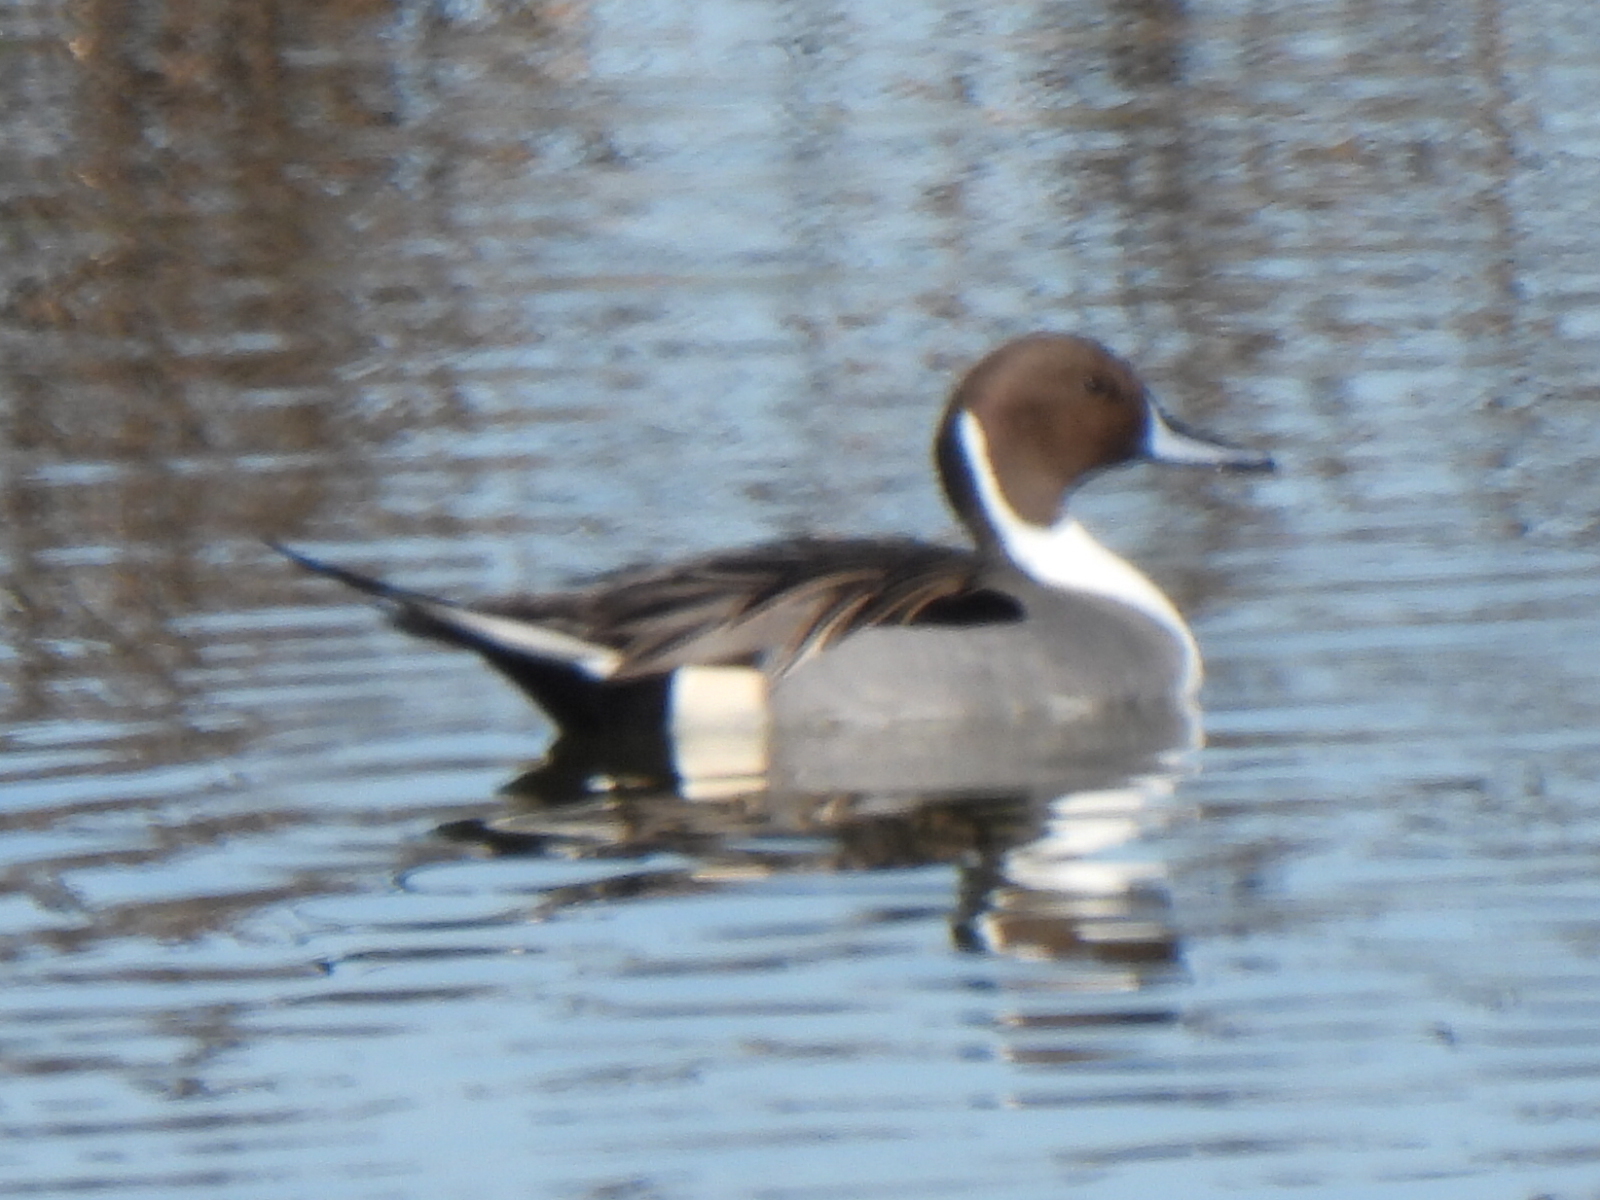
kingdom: Animalia
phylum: Chordata
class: Aves
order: Anseriformes
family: Anatidae
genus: Anas
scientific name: Anas acuta
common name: Northern pintail
